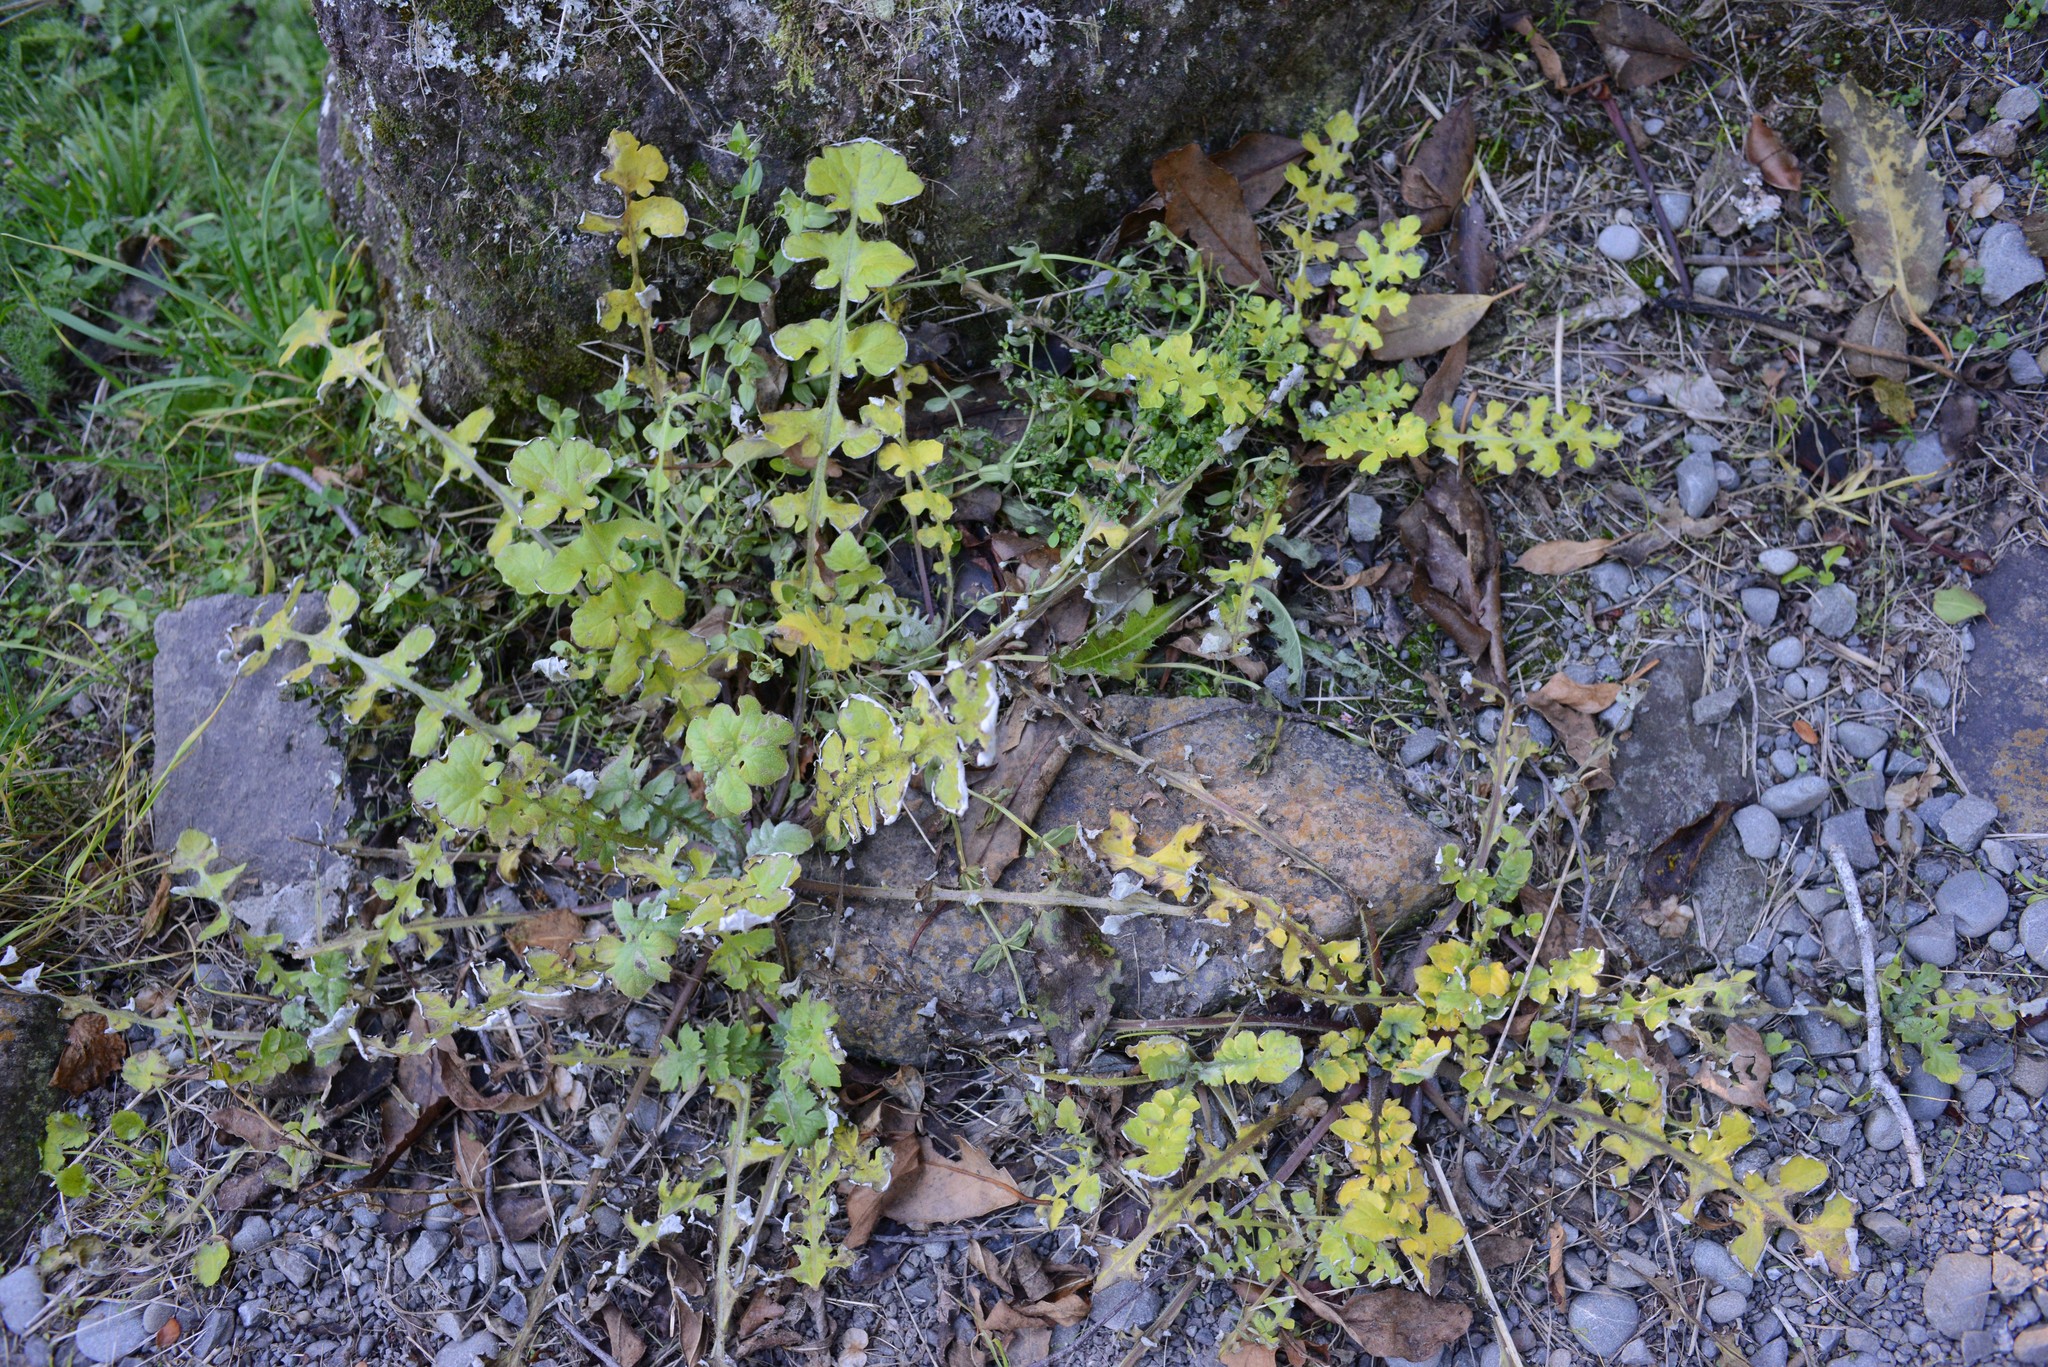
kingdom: Plantae
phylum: Tracheophyta
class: Magnoliopsida
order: Asterales
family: Asteraceae
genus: Arctotheca
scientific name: Arctotheca calendula
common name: Capeweed
